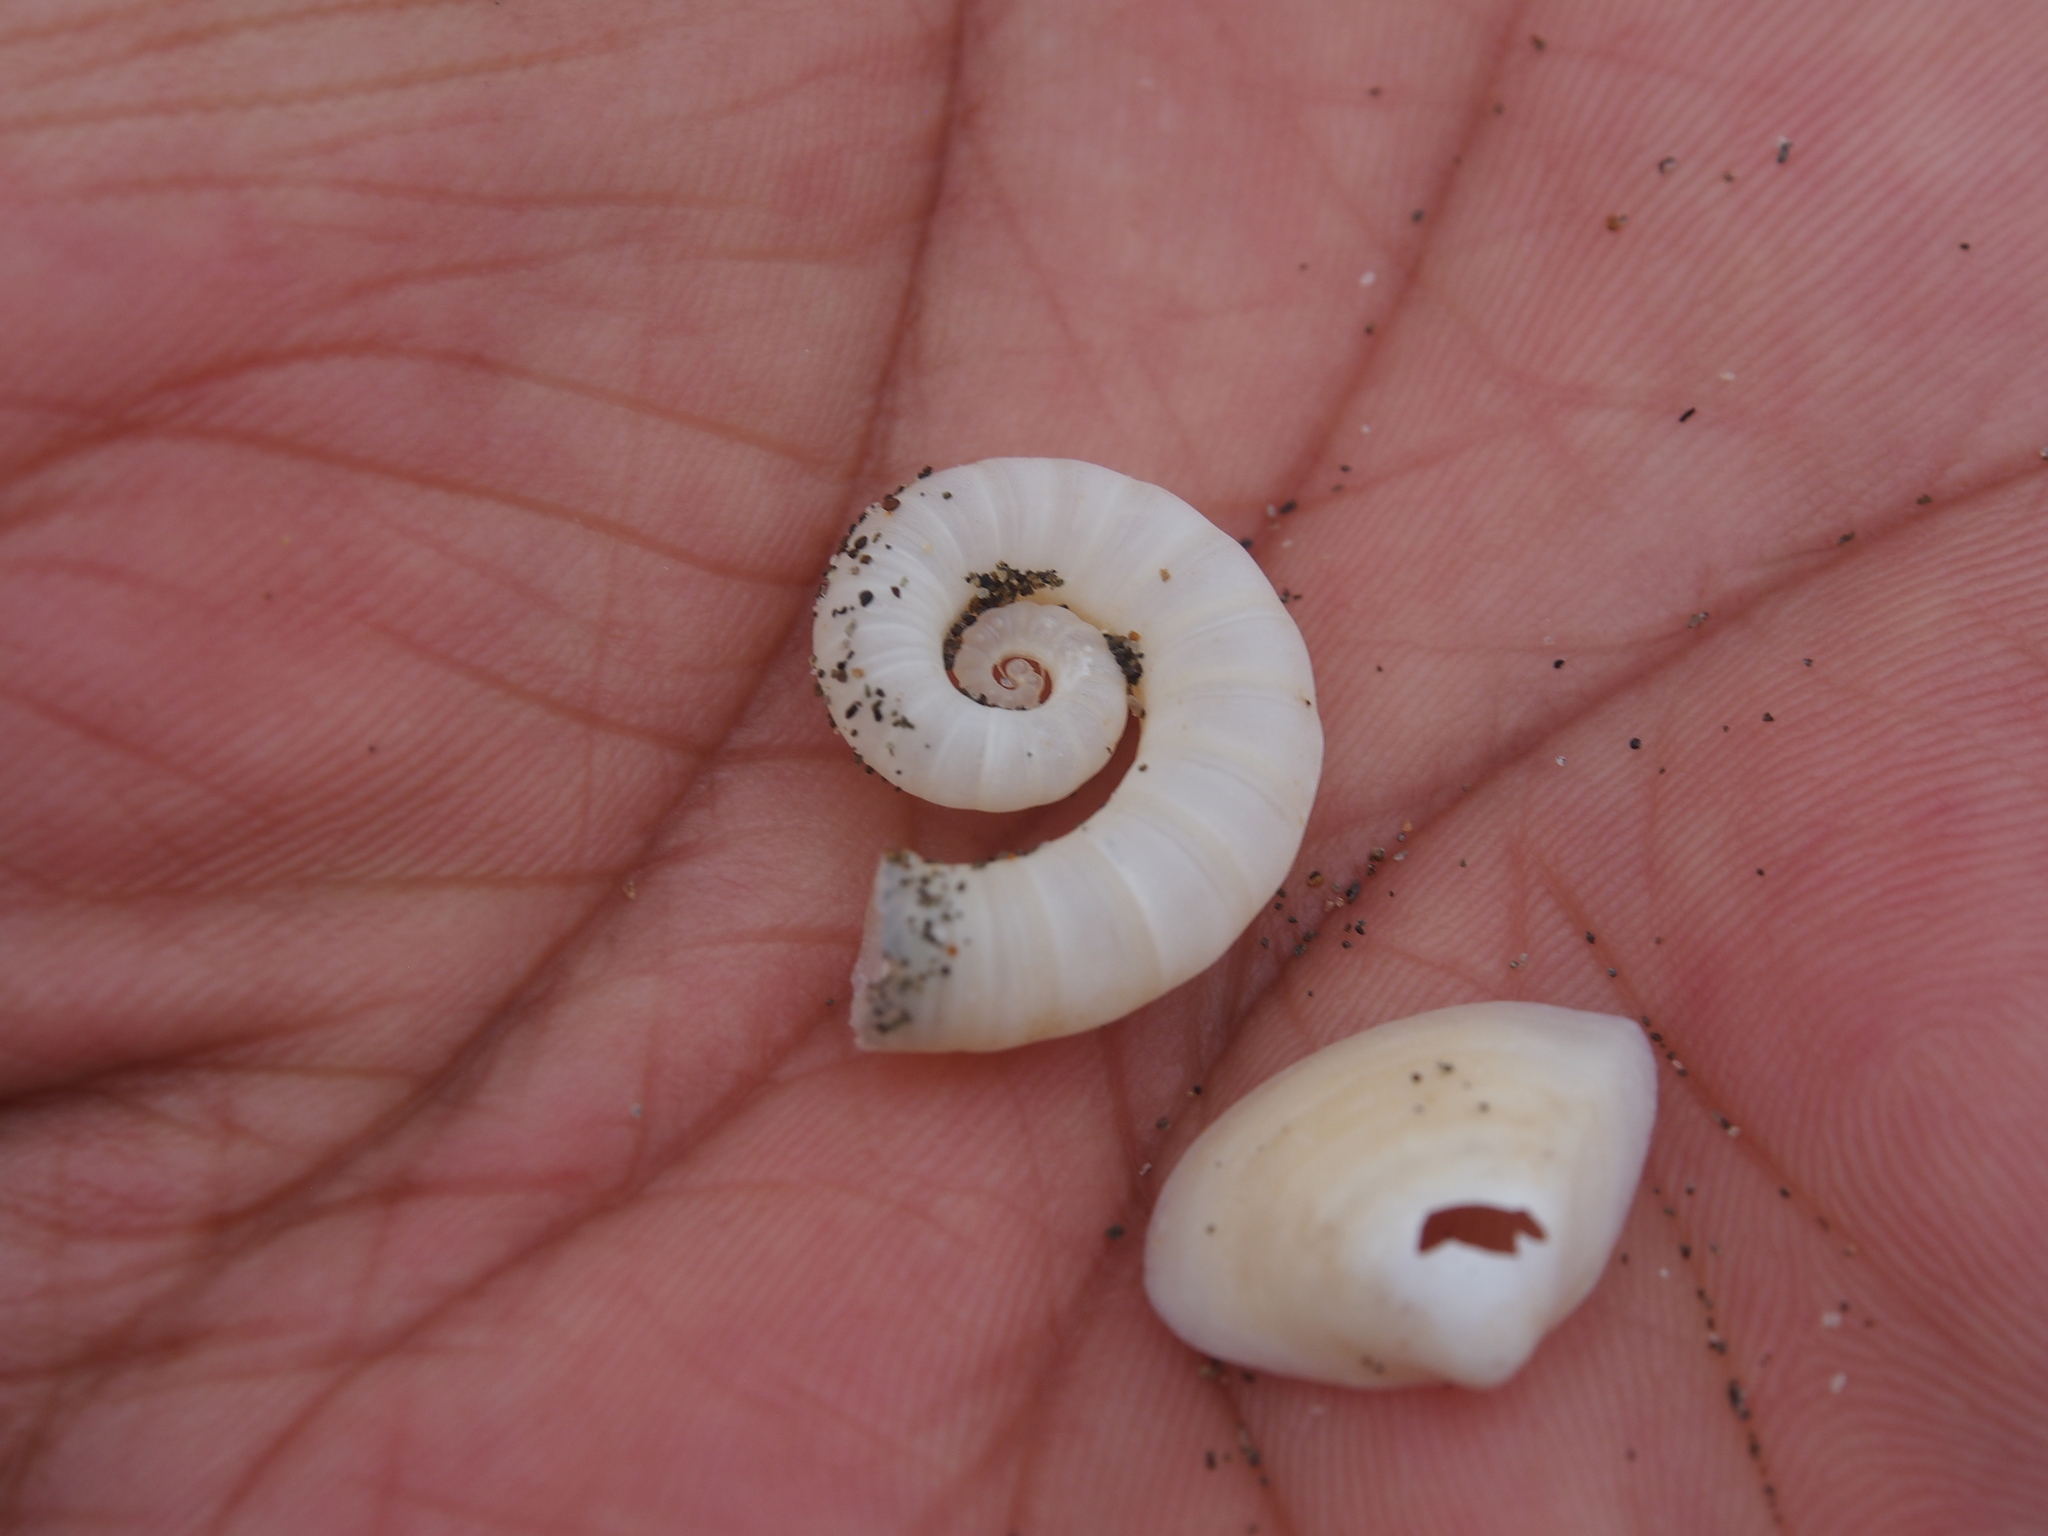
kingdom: Animalia
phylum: Mollusca
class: Cephalopoda
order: Spirulida
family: Spirulidae
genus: Spirula
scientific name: Spirula spirula
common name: Ram's horn squid
